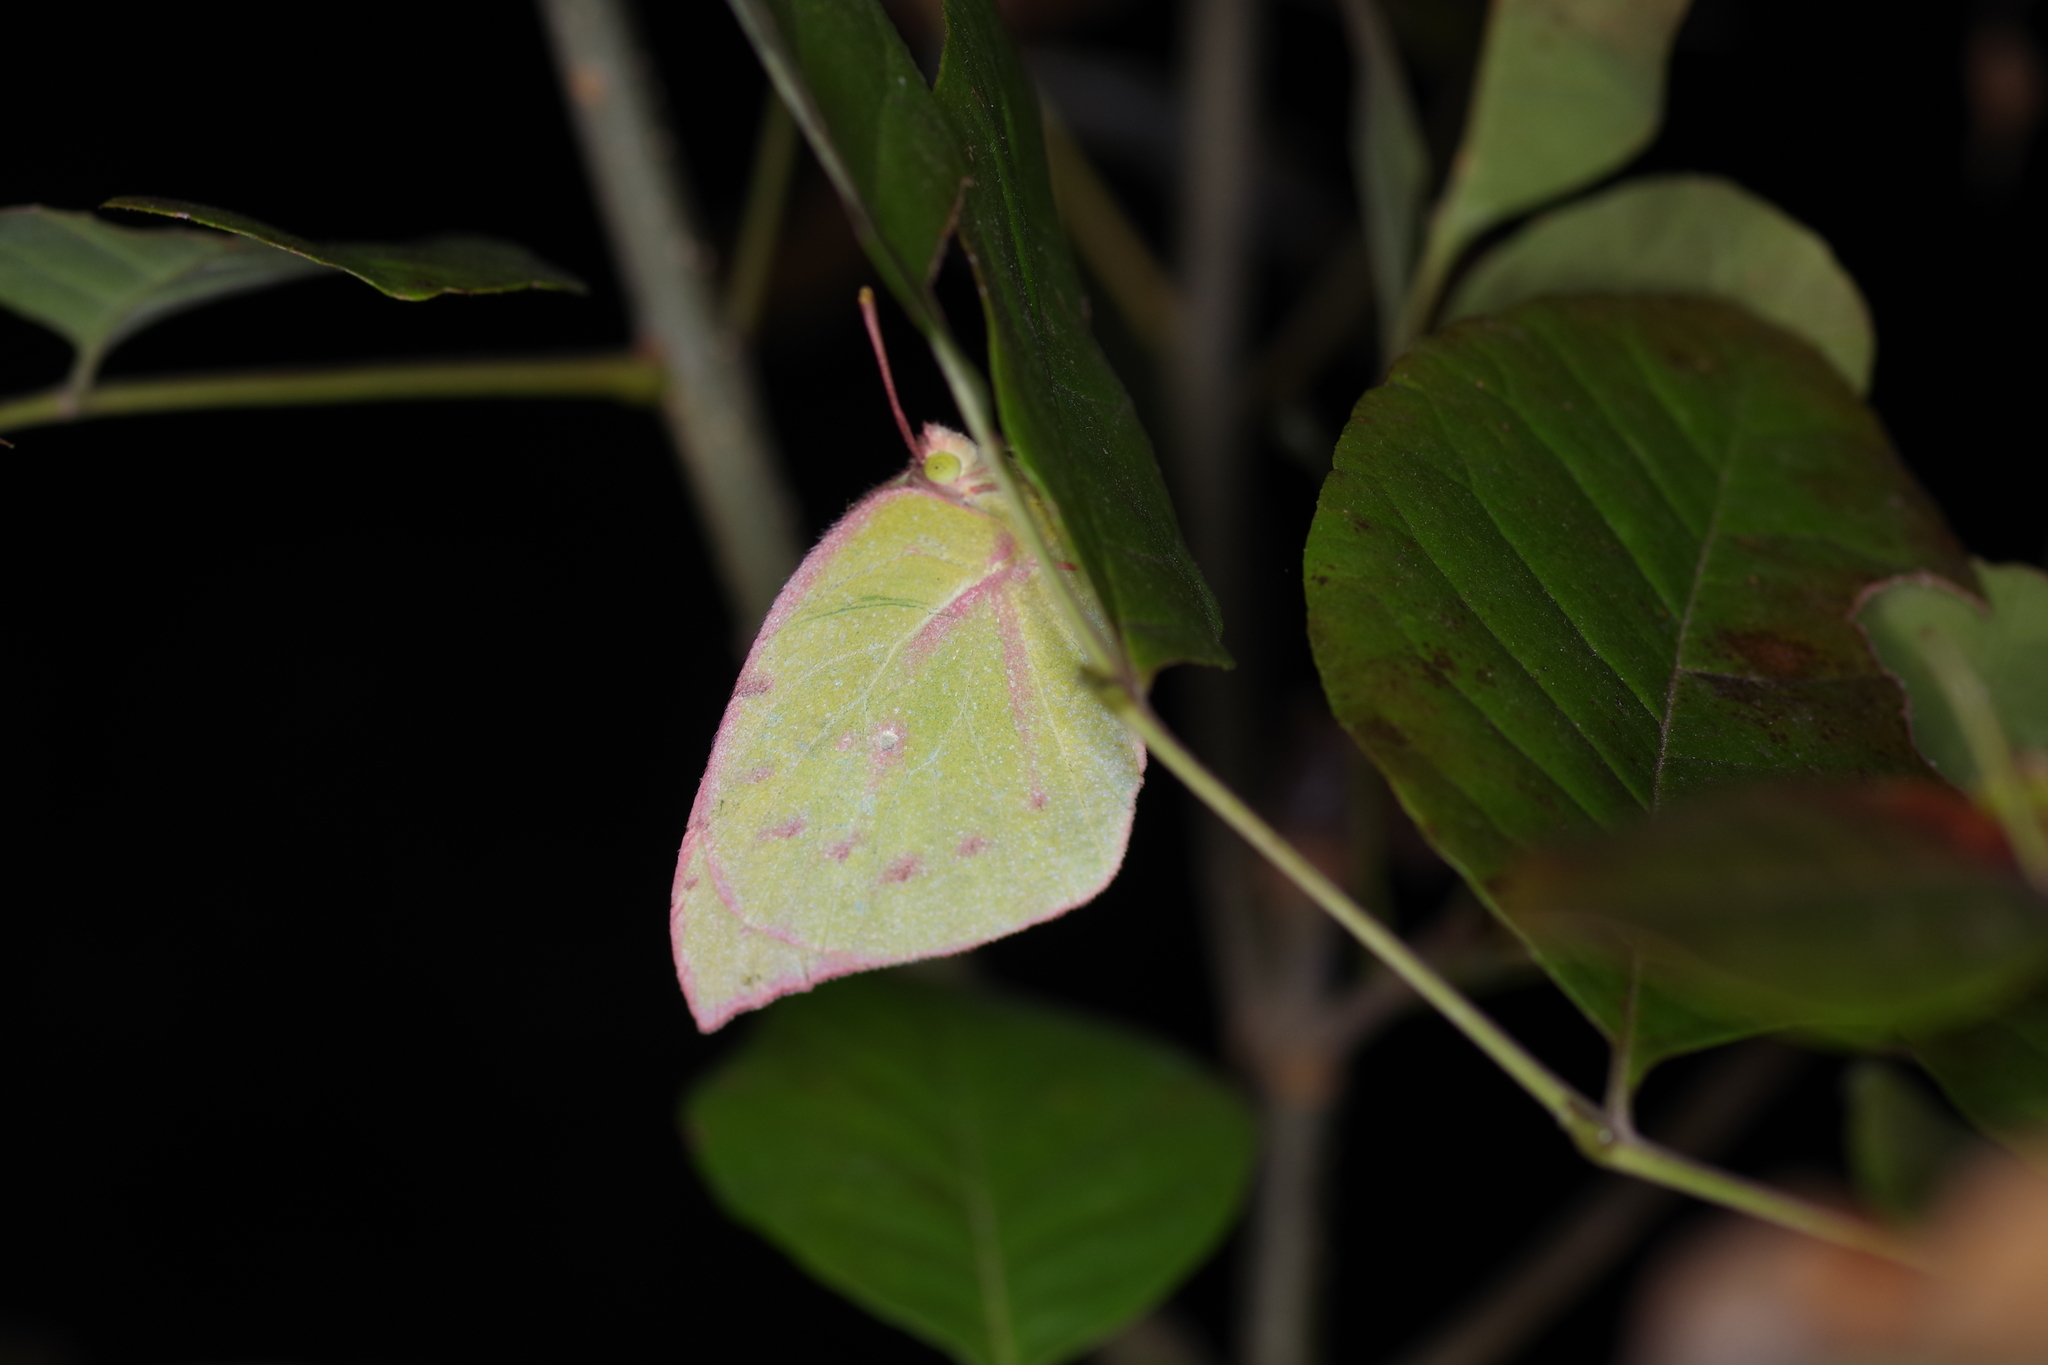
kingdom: Animalia
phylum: Arthropoda
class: Insecta
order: Lepidoptera
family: Pieridae
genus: Zerene
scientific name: Zerene cesonia
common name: Southern dogface
